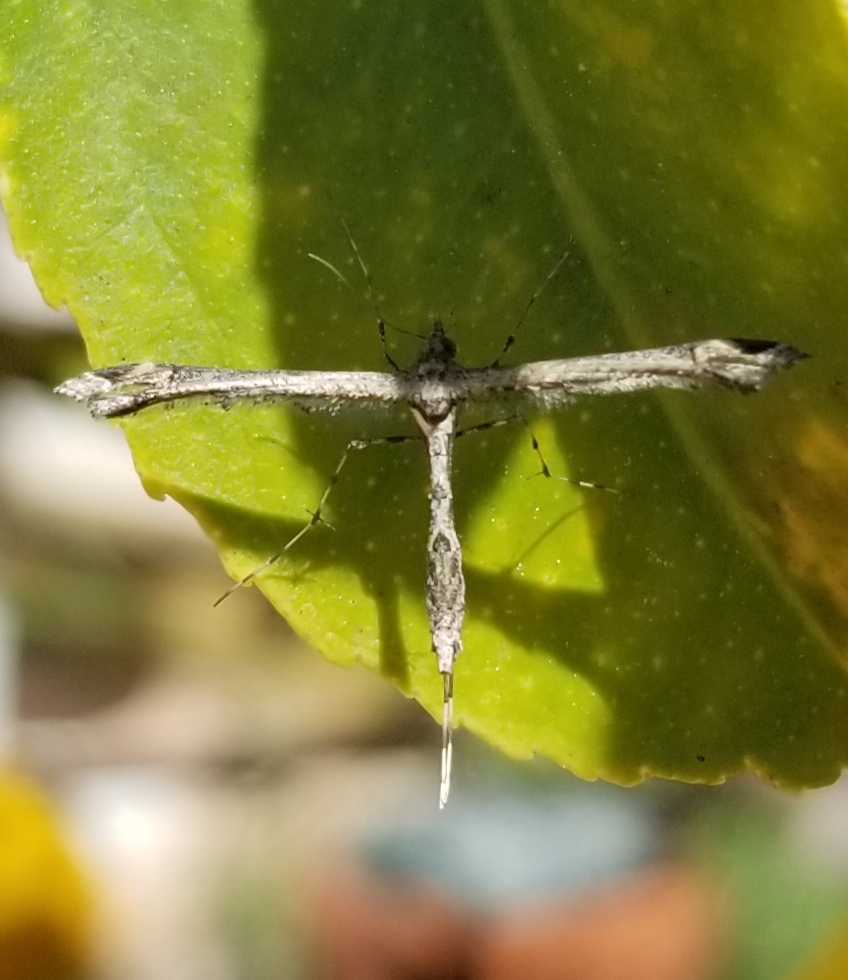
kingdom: Animalia
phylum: Arthropoda
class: Insecta
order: Lepidoptera
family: Pterophoridae
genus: Anstenoptilia
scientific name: Anstenoptilia marmarodactyla
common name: Moth
